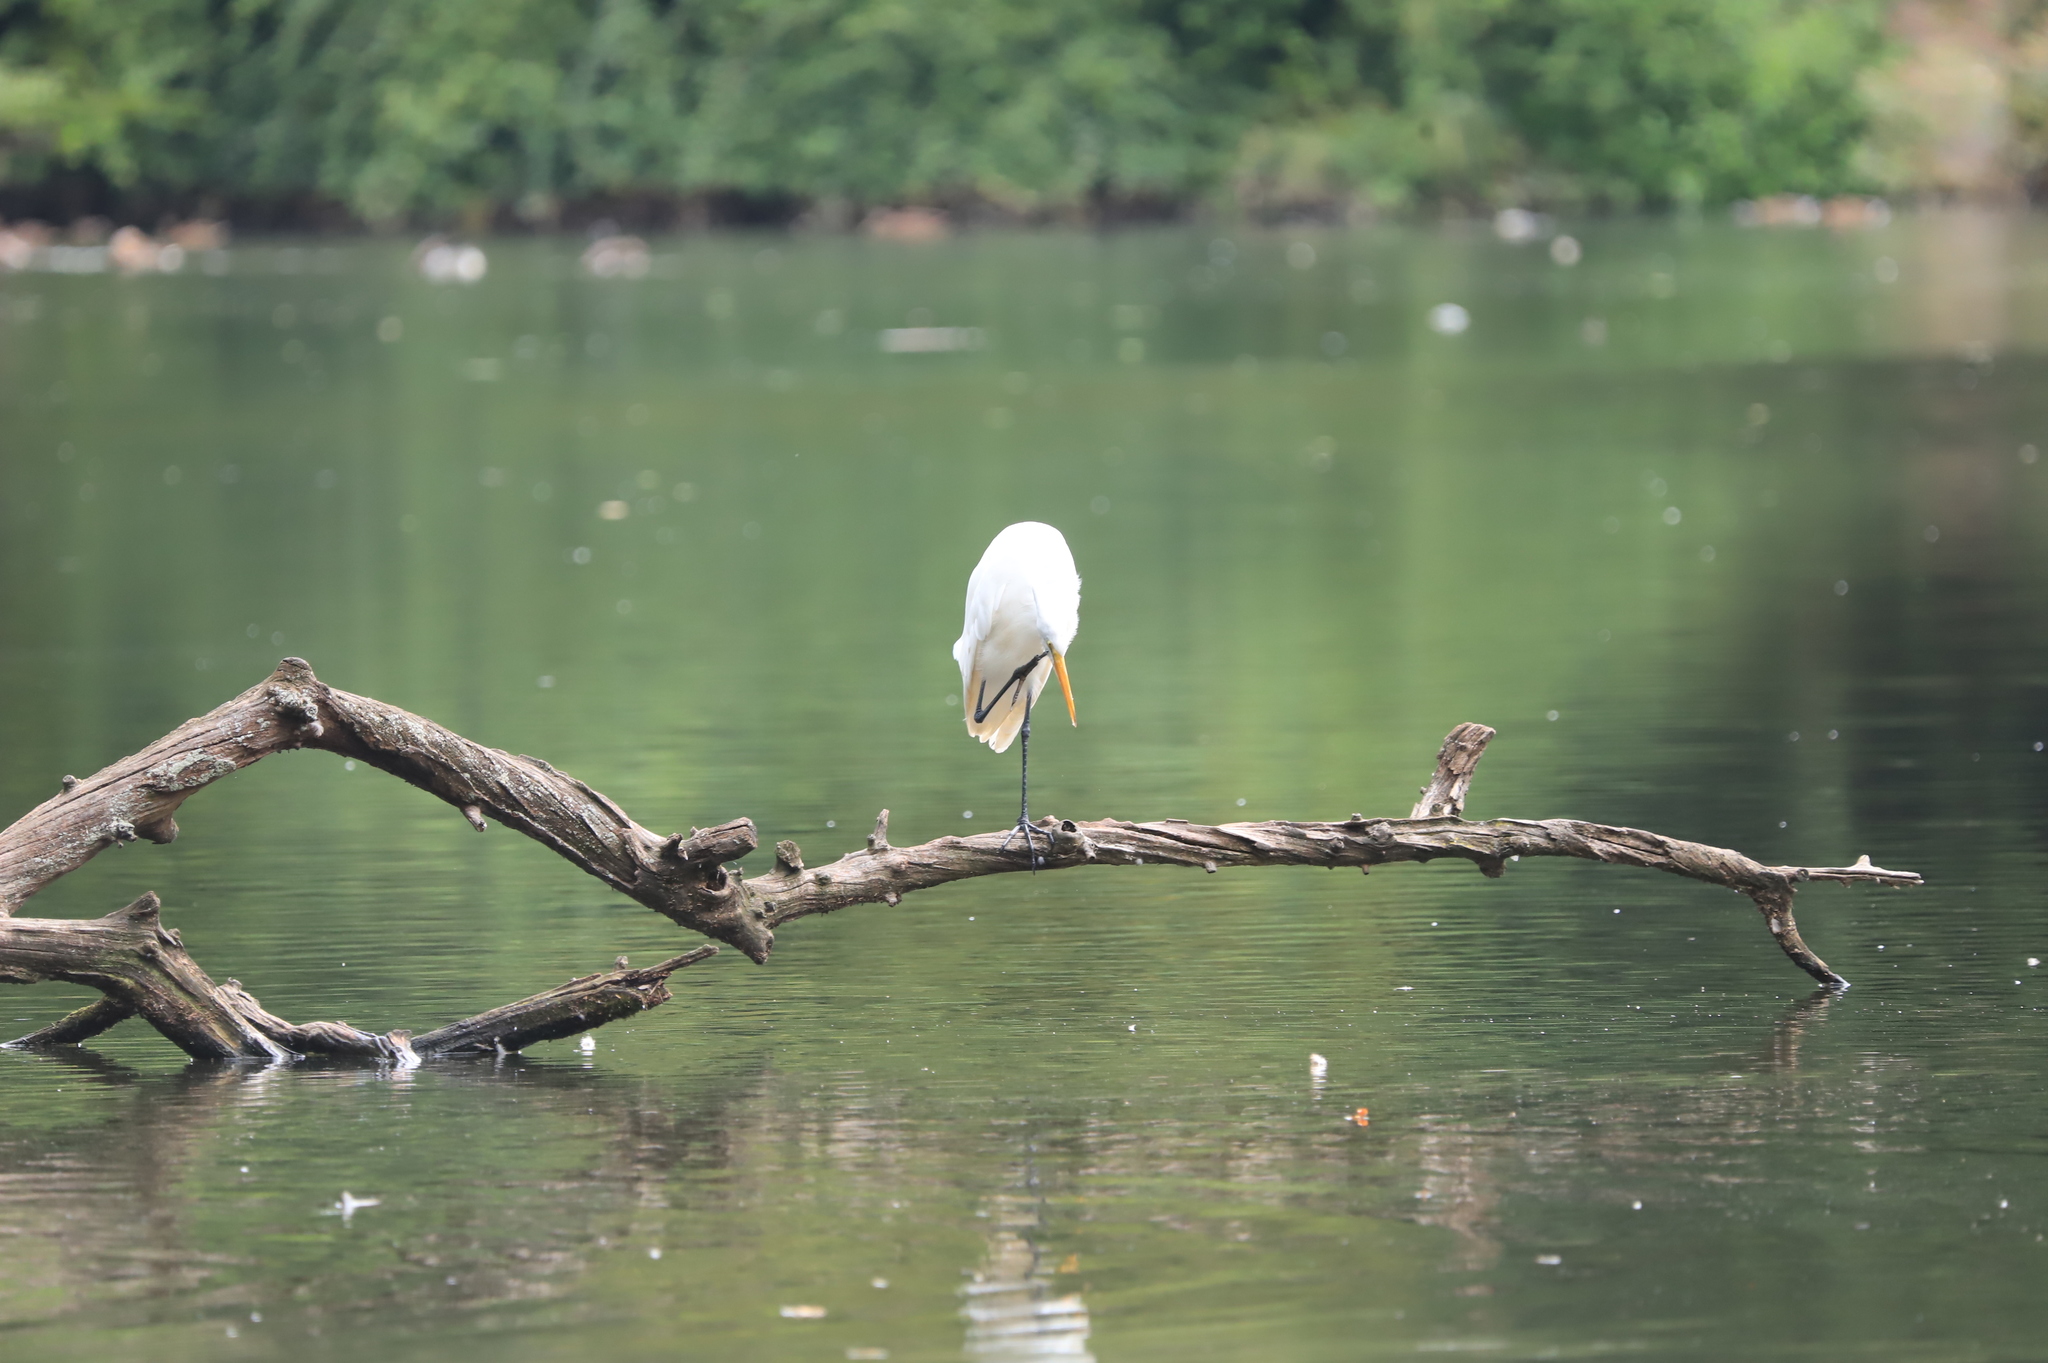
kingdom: Animalia
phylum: Chordata
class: Aves
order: Pelecaniformes
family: Ardeidae
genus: Ardea
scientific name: Ardea alba
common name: Great egret
